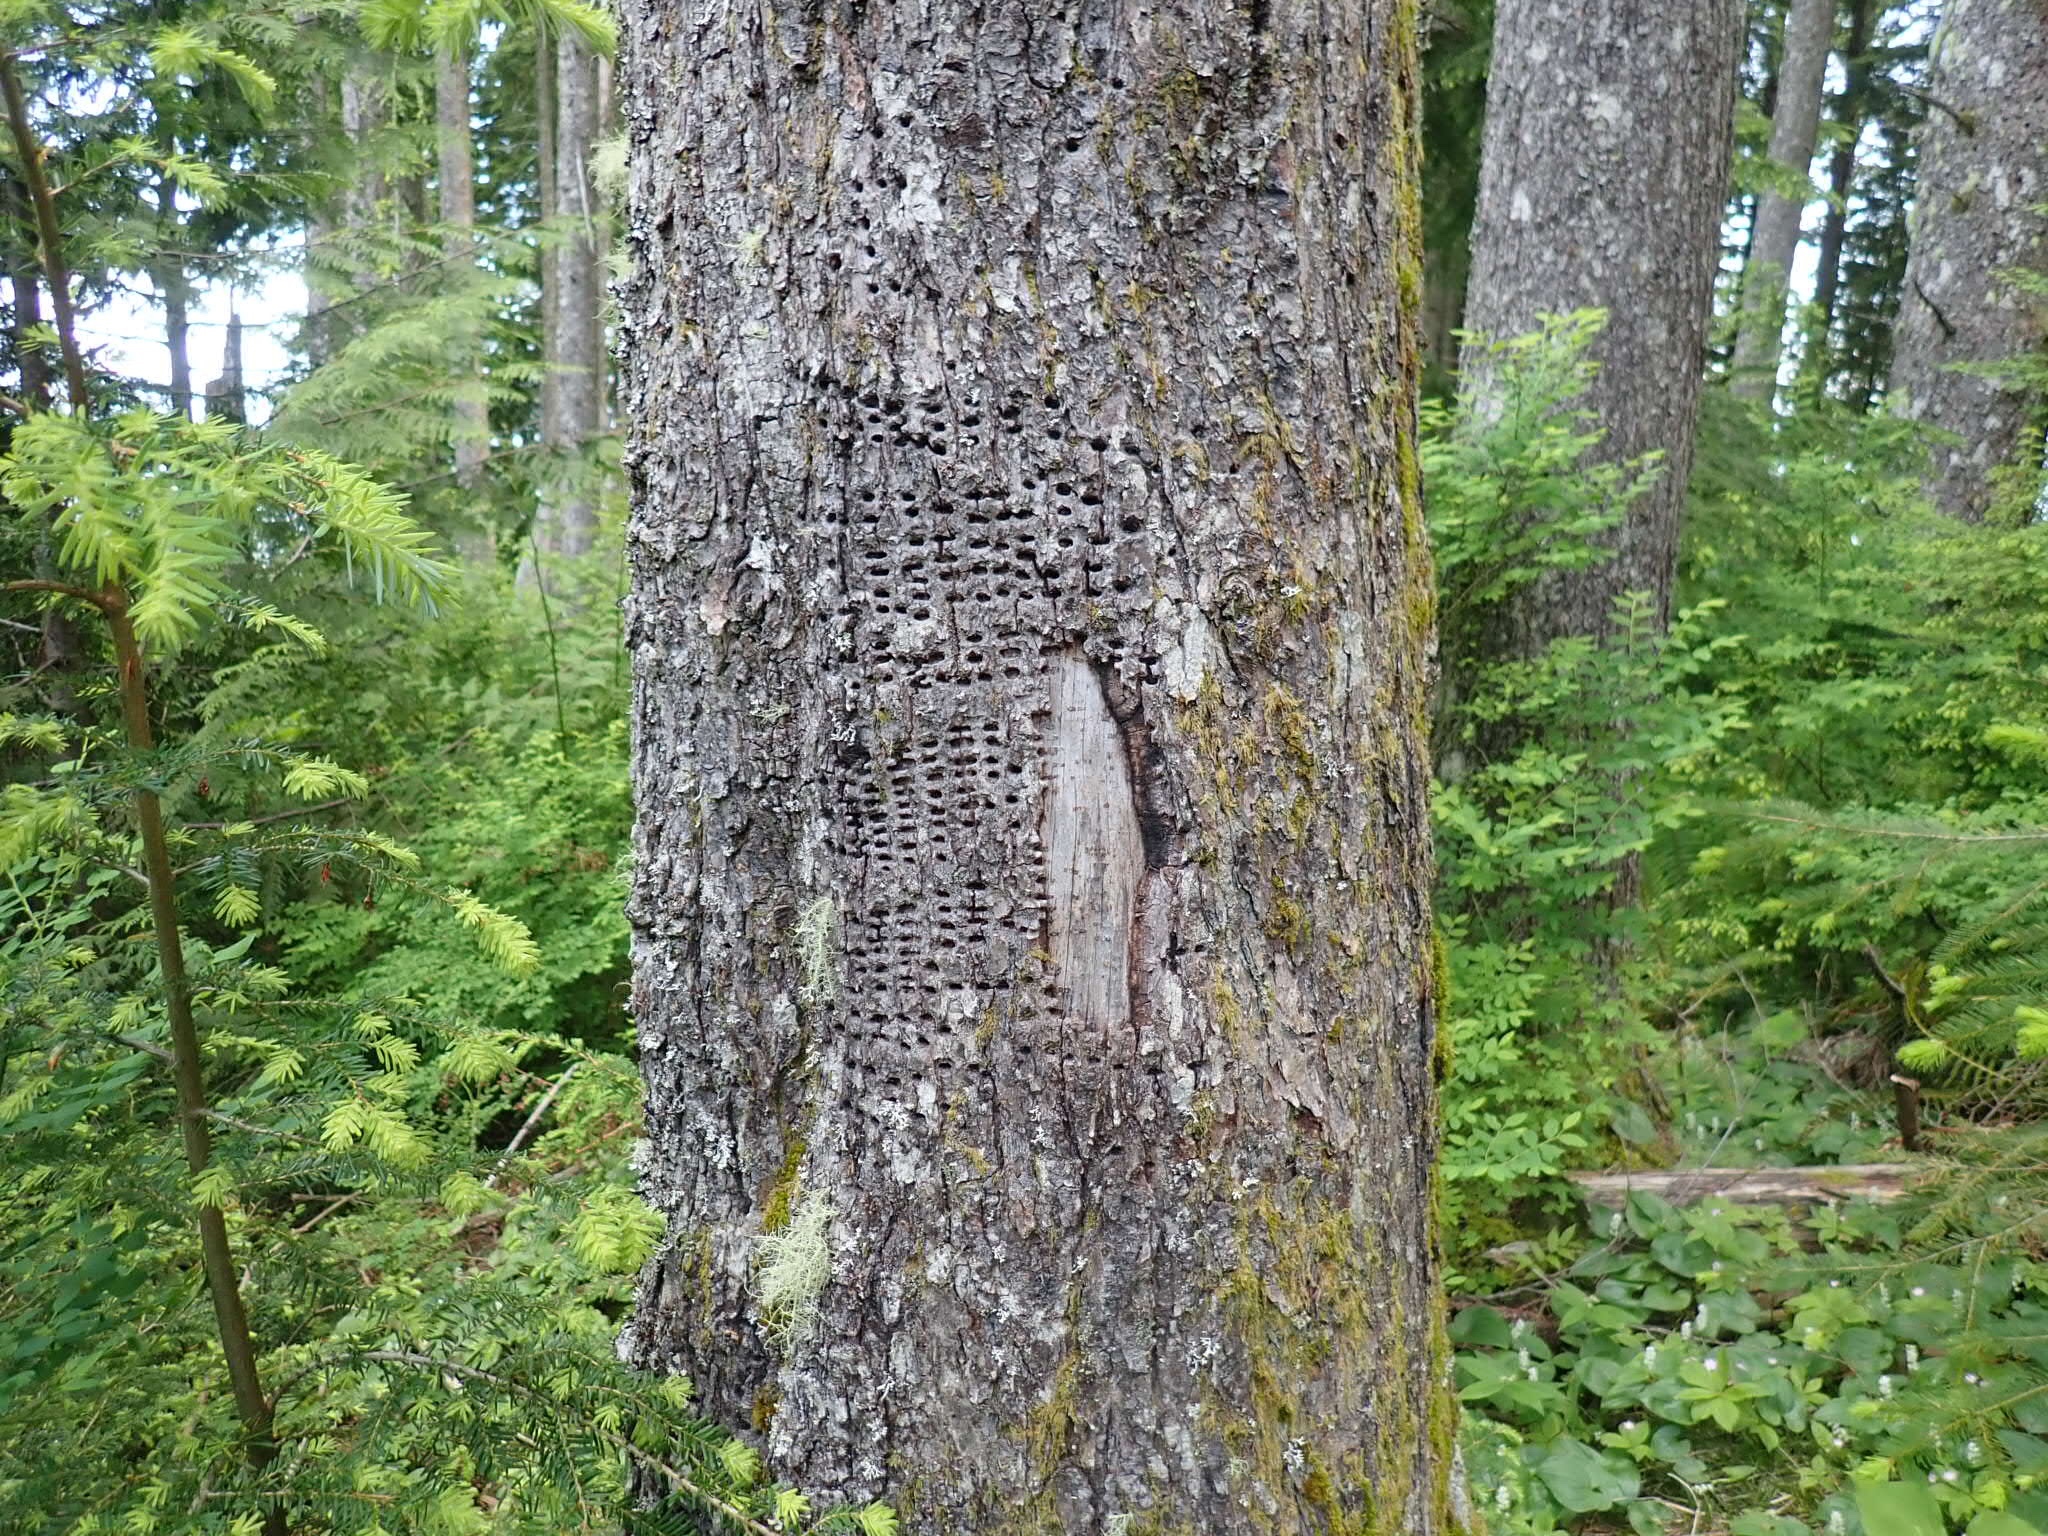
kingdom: Animalia
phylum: Chordata
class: Aves
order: Piciformes
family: Picidae
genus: Sphyrapicus
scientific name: Sphyrapicus
